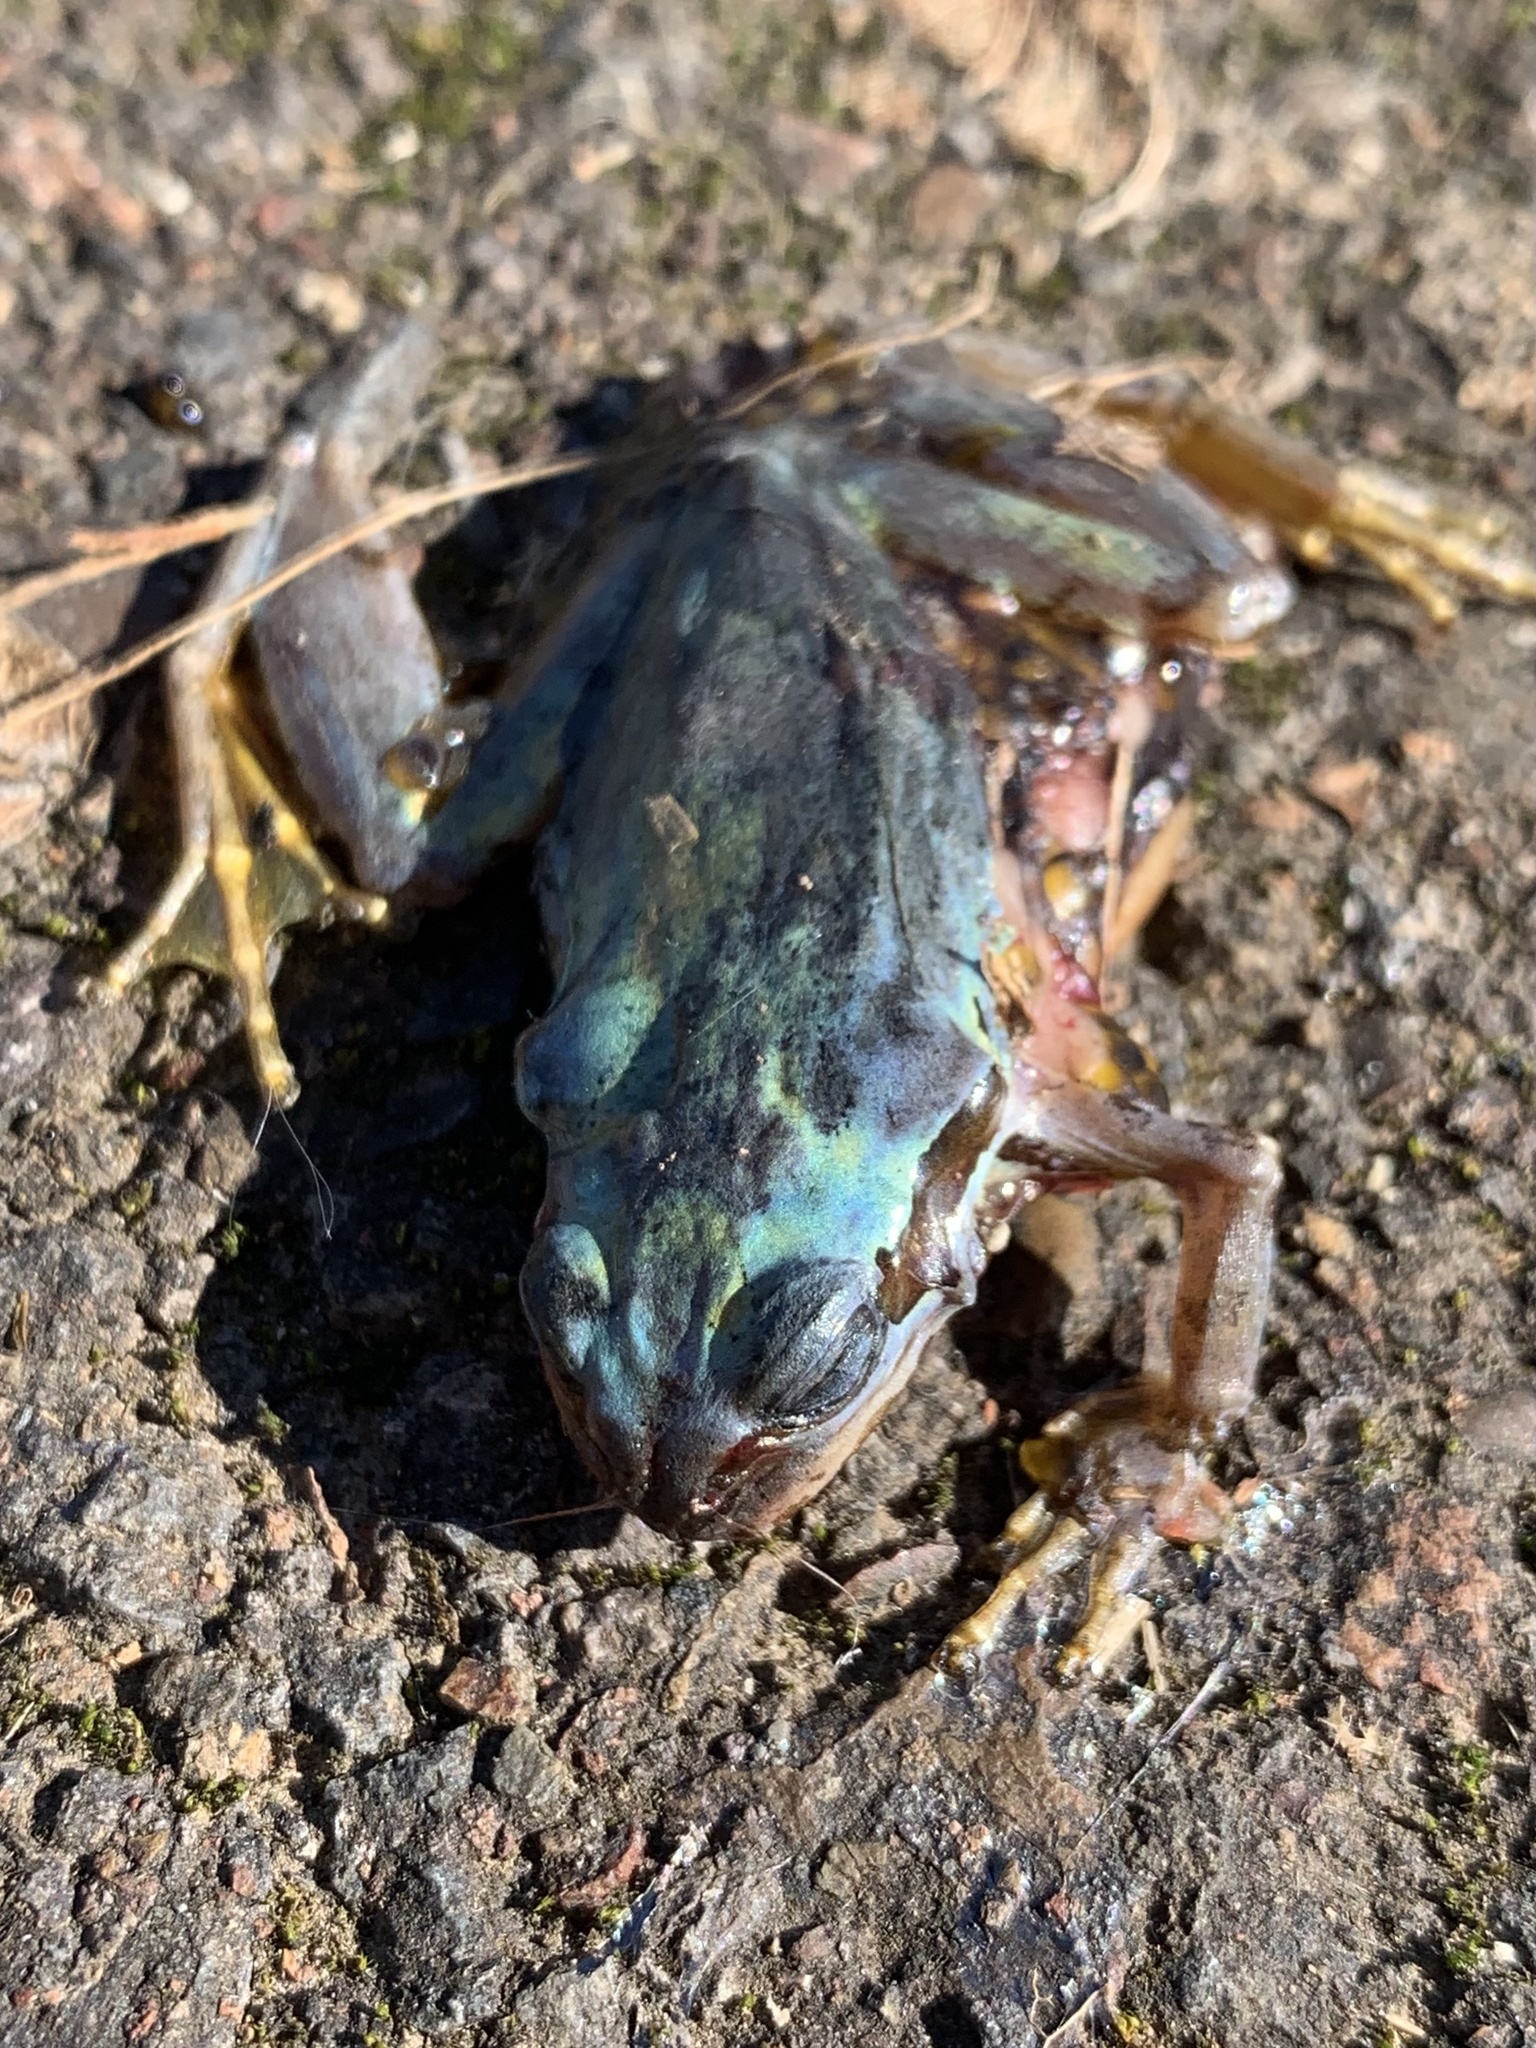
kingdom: Animalia
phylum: Chordata
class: Amphibia
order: Anura
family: Hylidae
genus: Pseudacris
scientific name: Pseudacris regilla
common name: Pacific chorus frog
